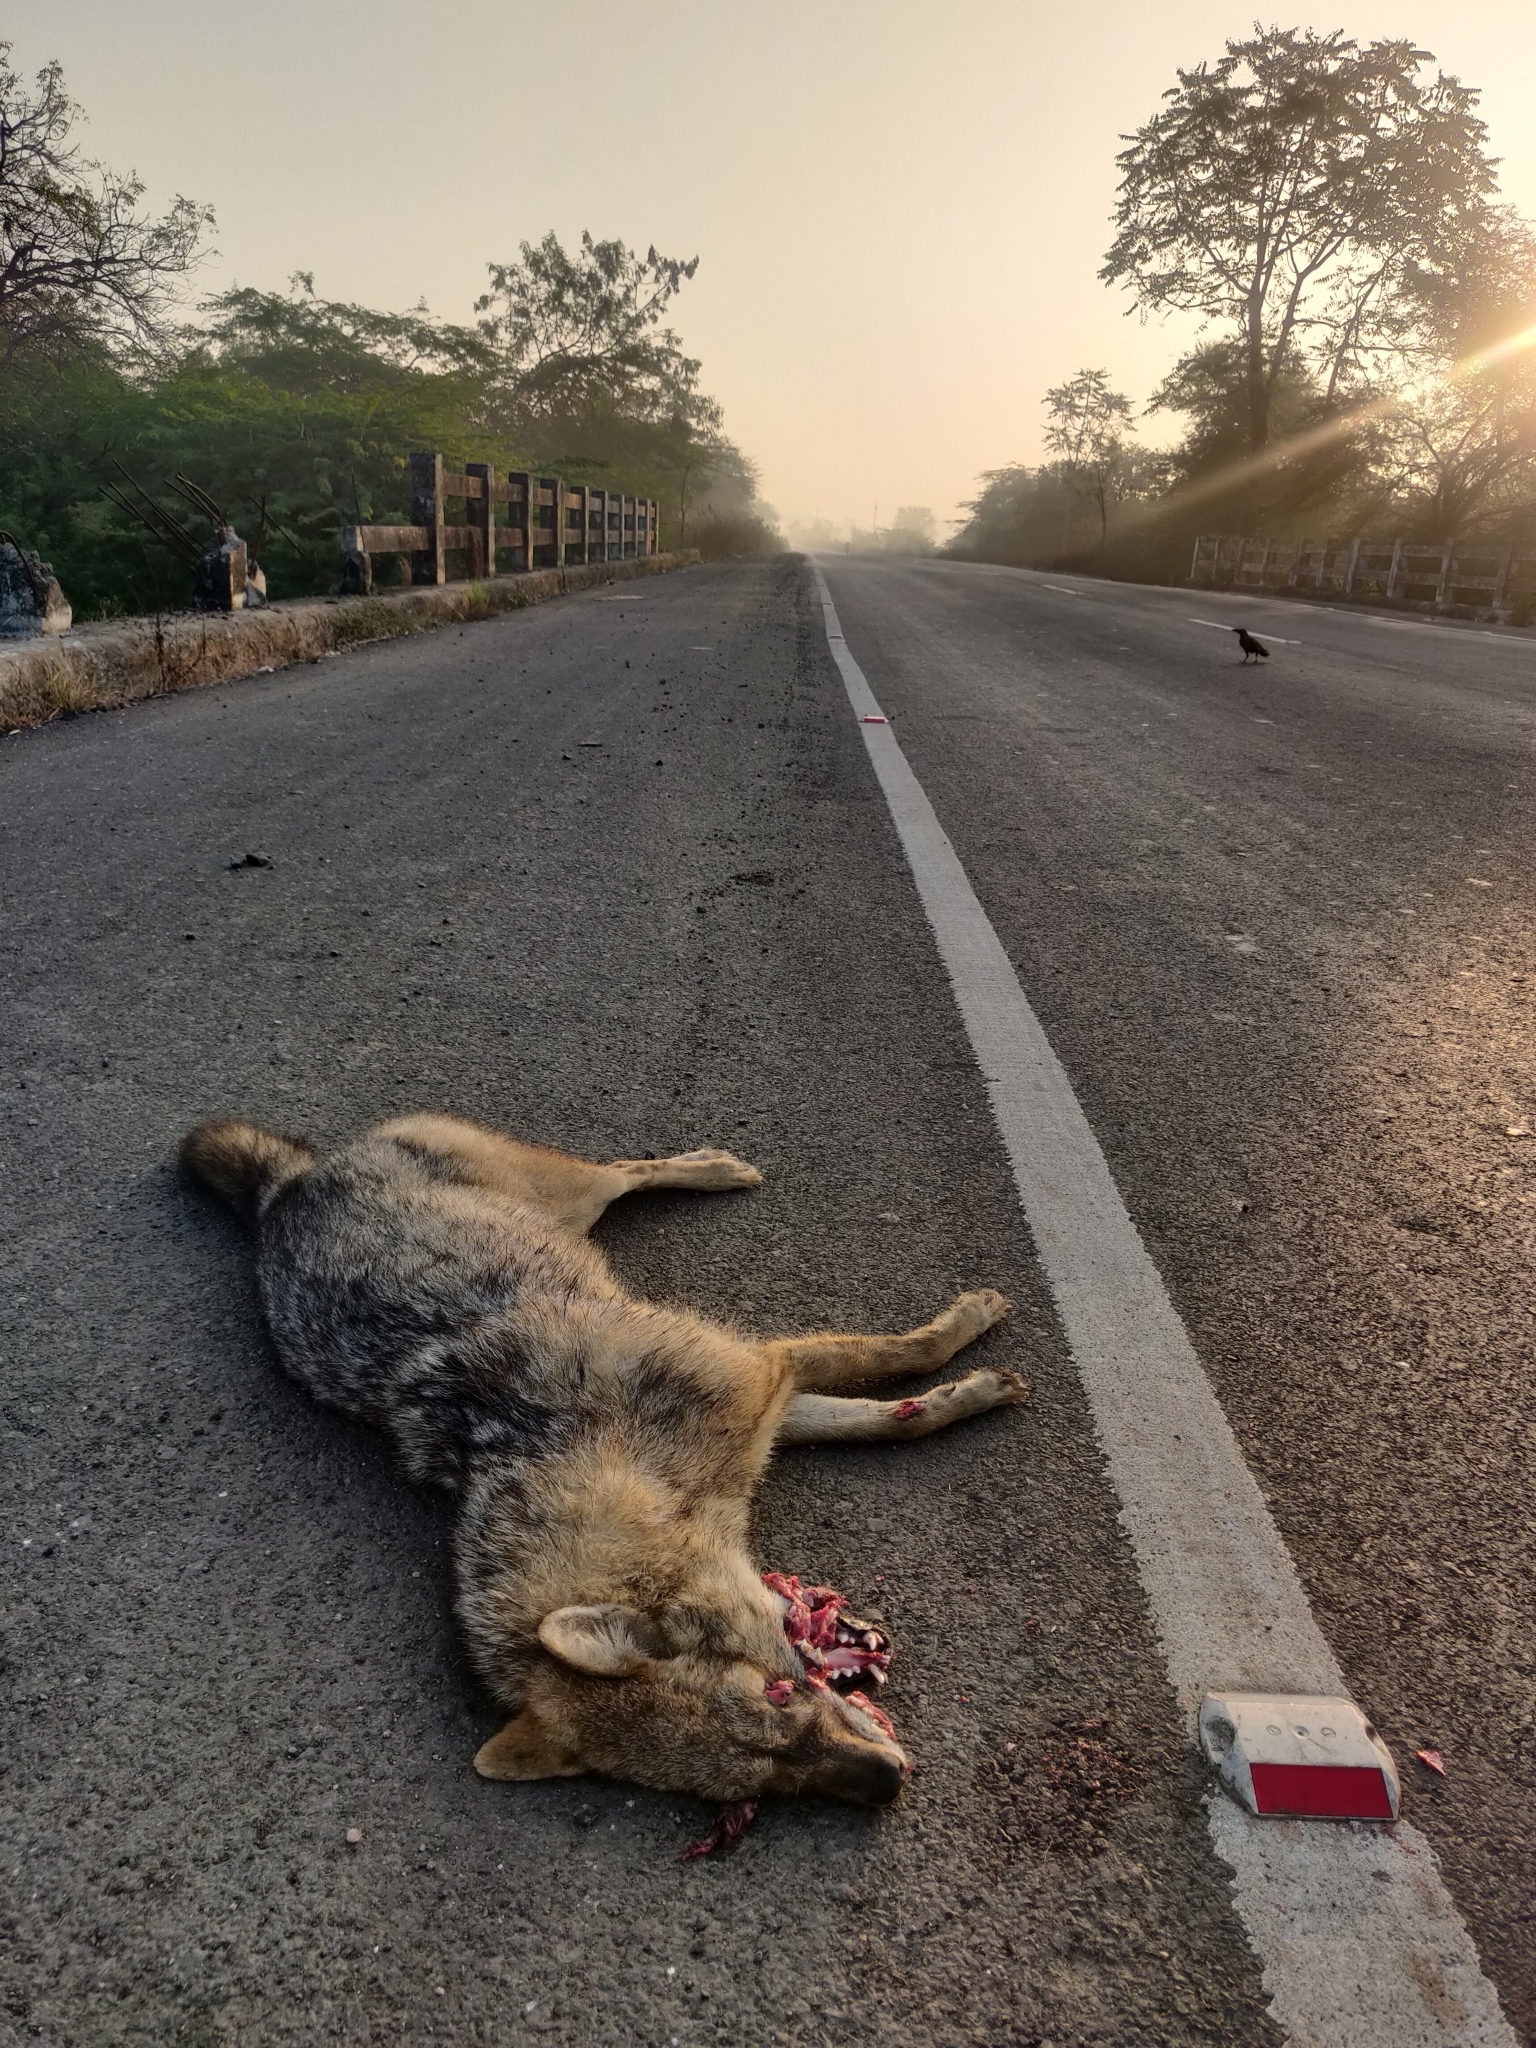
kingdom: Animalia
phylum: Chordata
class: Mammalia
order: Carnivora
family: Canidae
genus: Canis
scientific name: Canis aureus
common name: Golden jackal
